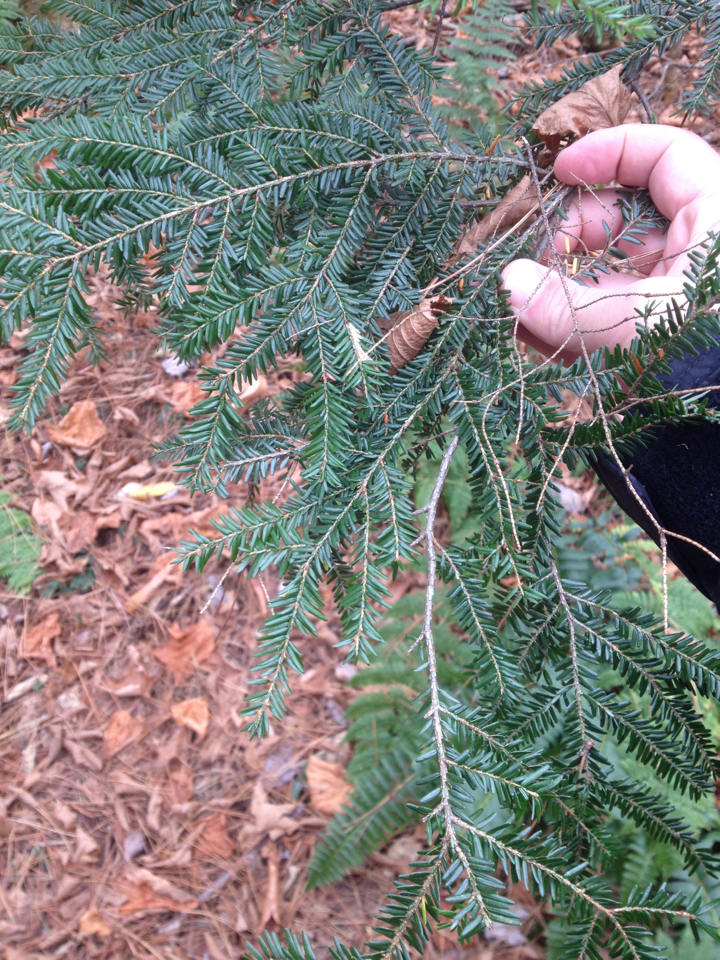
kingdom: Plantae
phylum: Tracheophyta
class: Pinopsida
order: Pinales
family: Pinaceae
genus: Tsuga
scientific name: Tsuga canadensis
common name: Eastern hemlock
